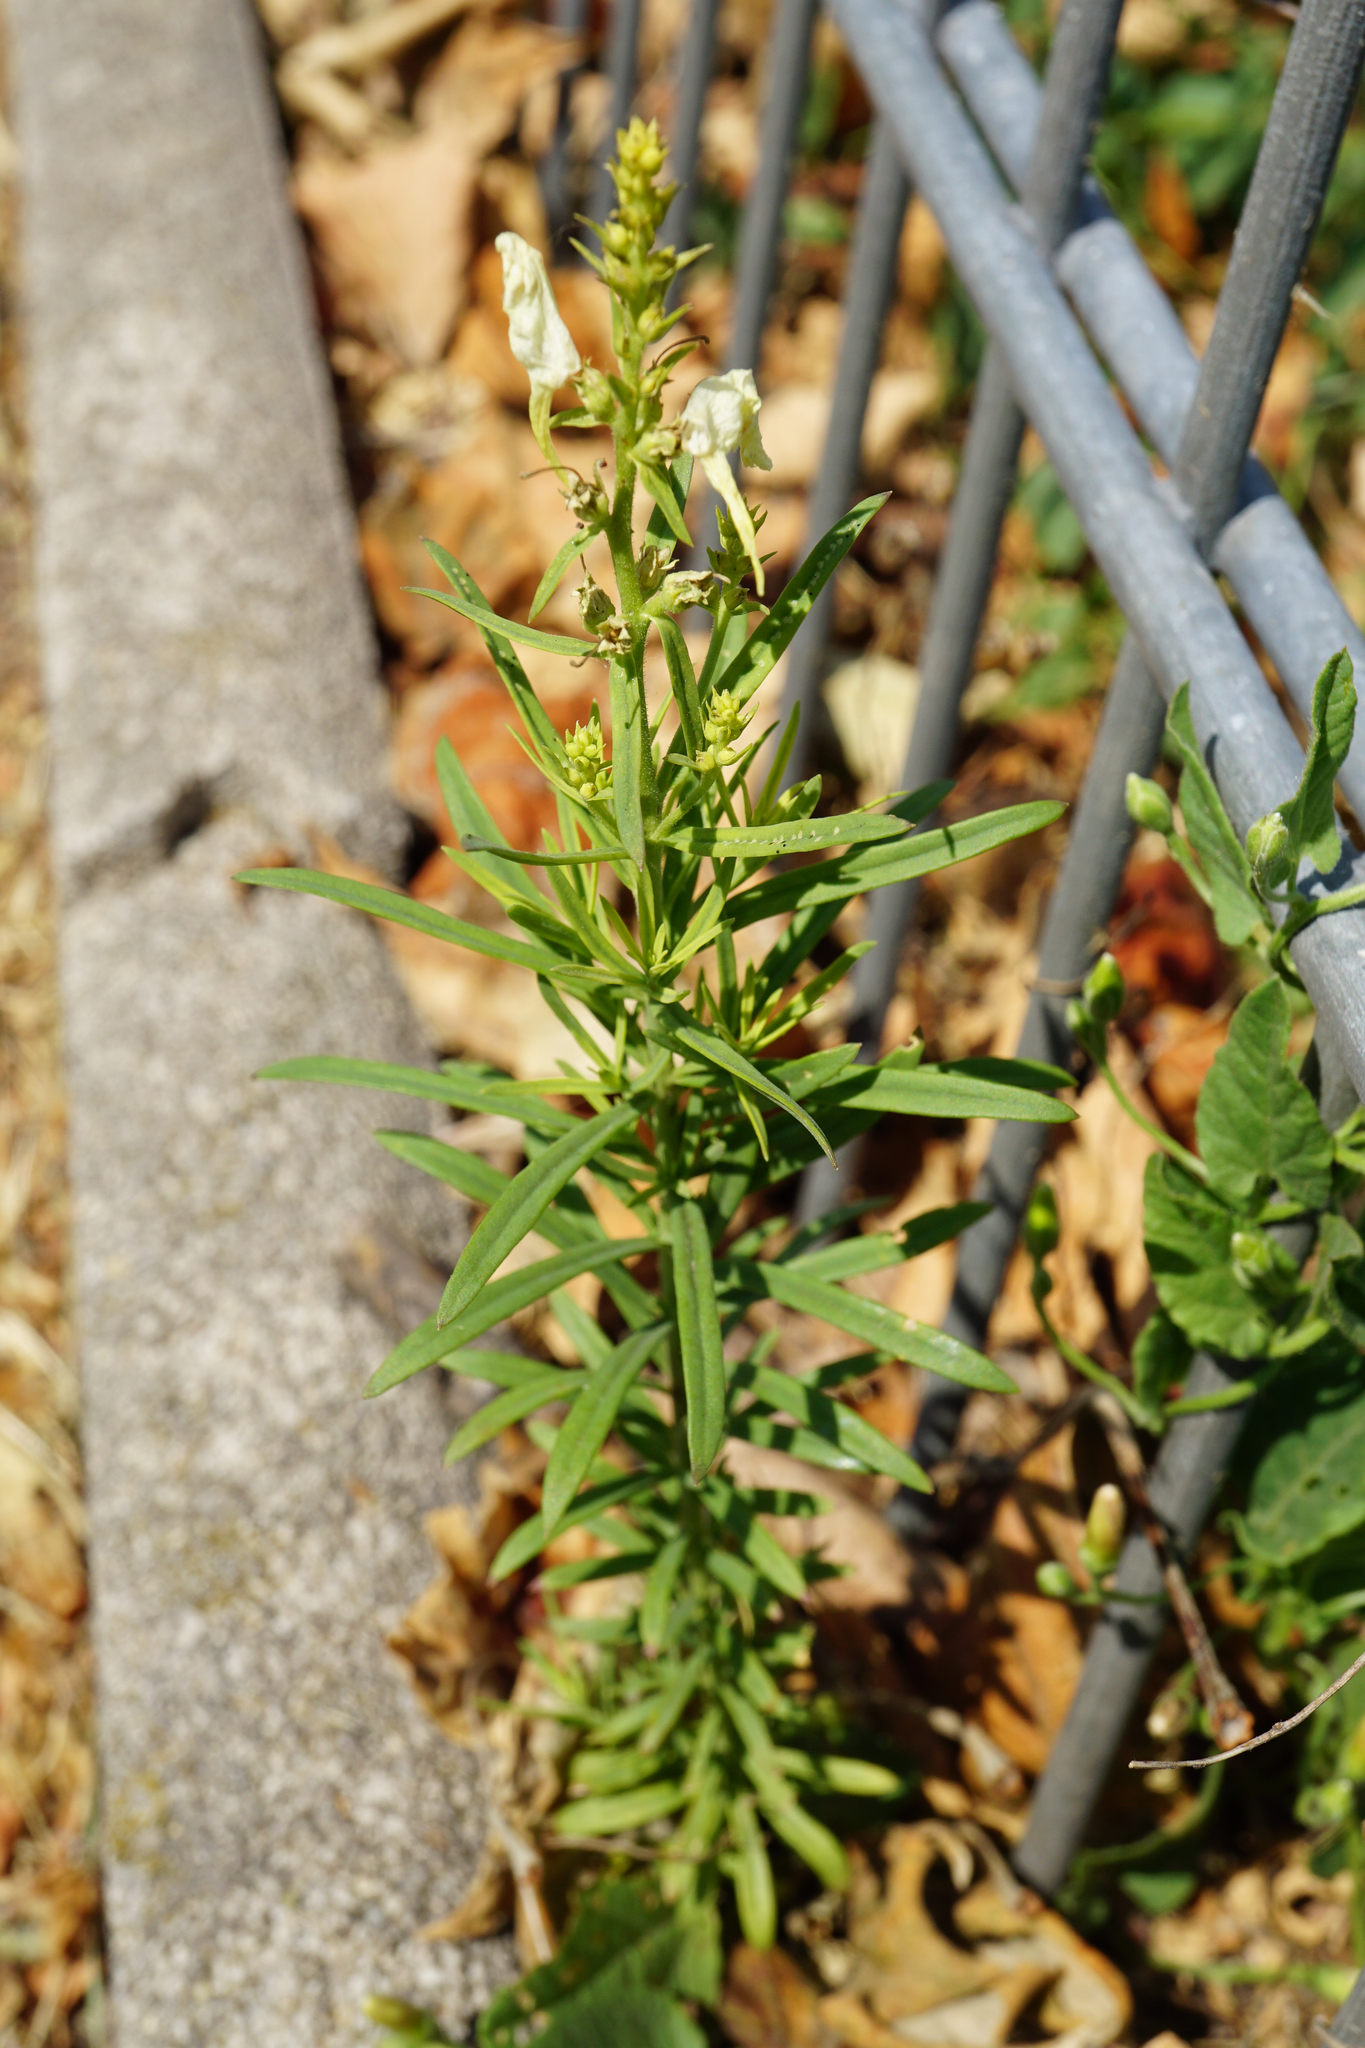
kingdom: Plantae
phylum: Tracheophyta
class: Magnoliopsida
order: Lamiales
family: Plantaginaceae
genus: Linaria
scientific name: Linaria vulgaris
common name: Butter and eggs
